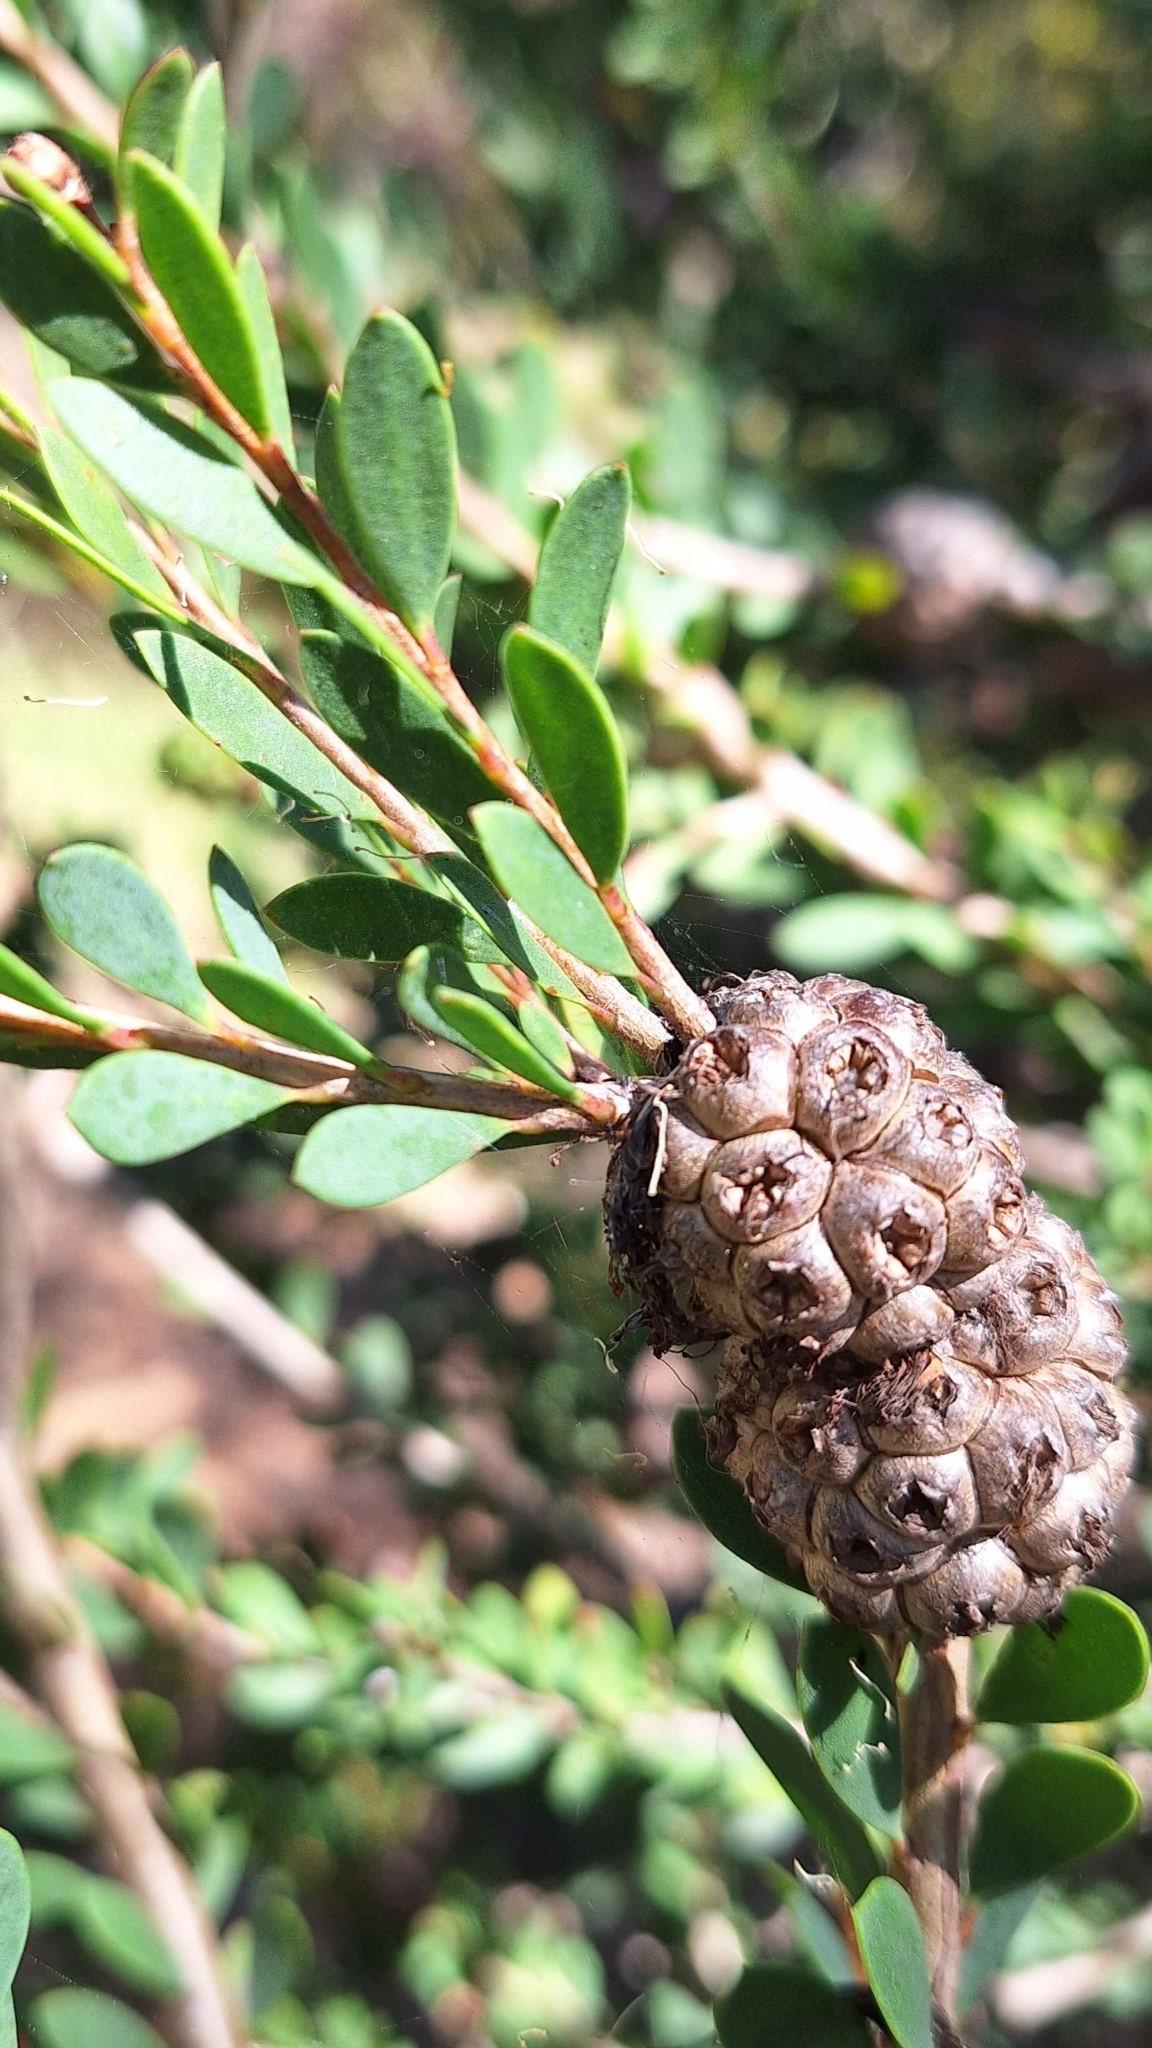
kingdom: Plantae
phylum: Tracheophyta
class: Magnoliopsida
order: Myrtales
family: Myrtaceae
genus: Melaleuca
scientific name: Melaleuca nesophila
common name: Mauve honey myrtle
